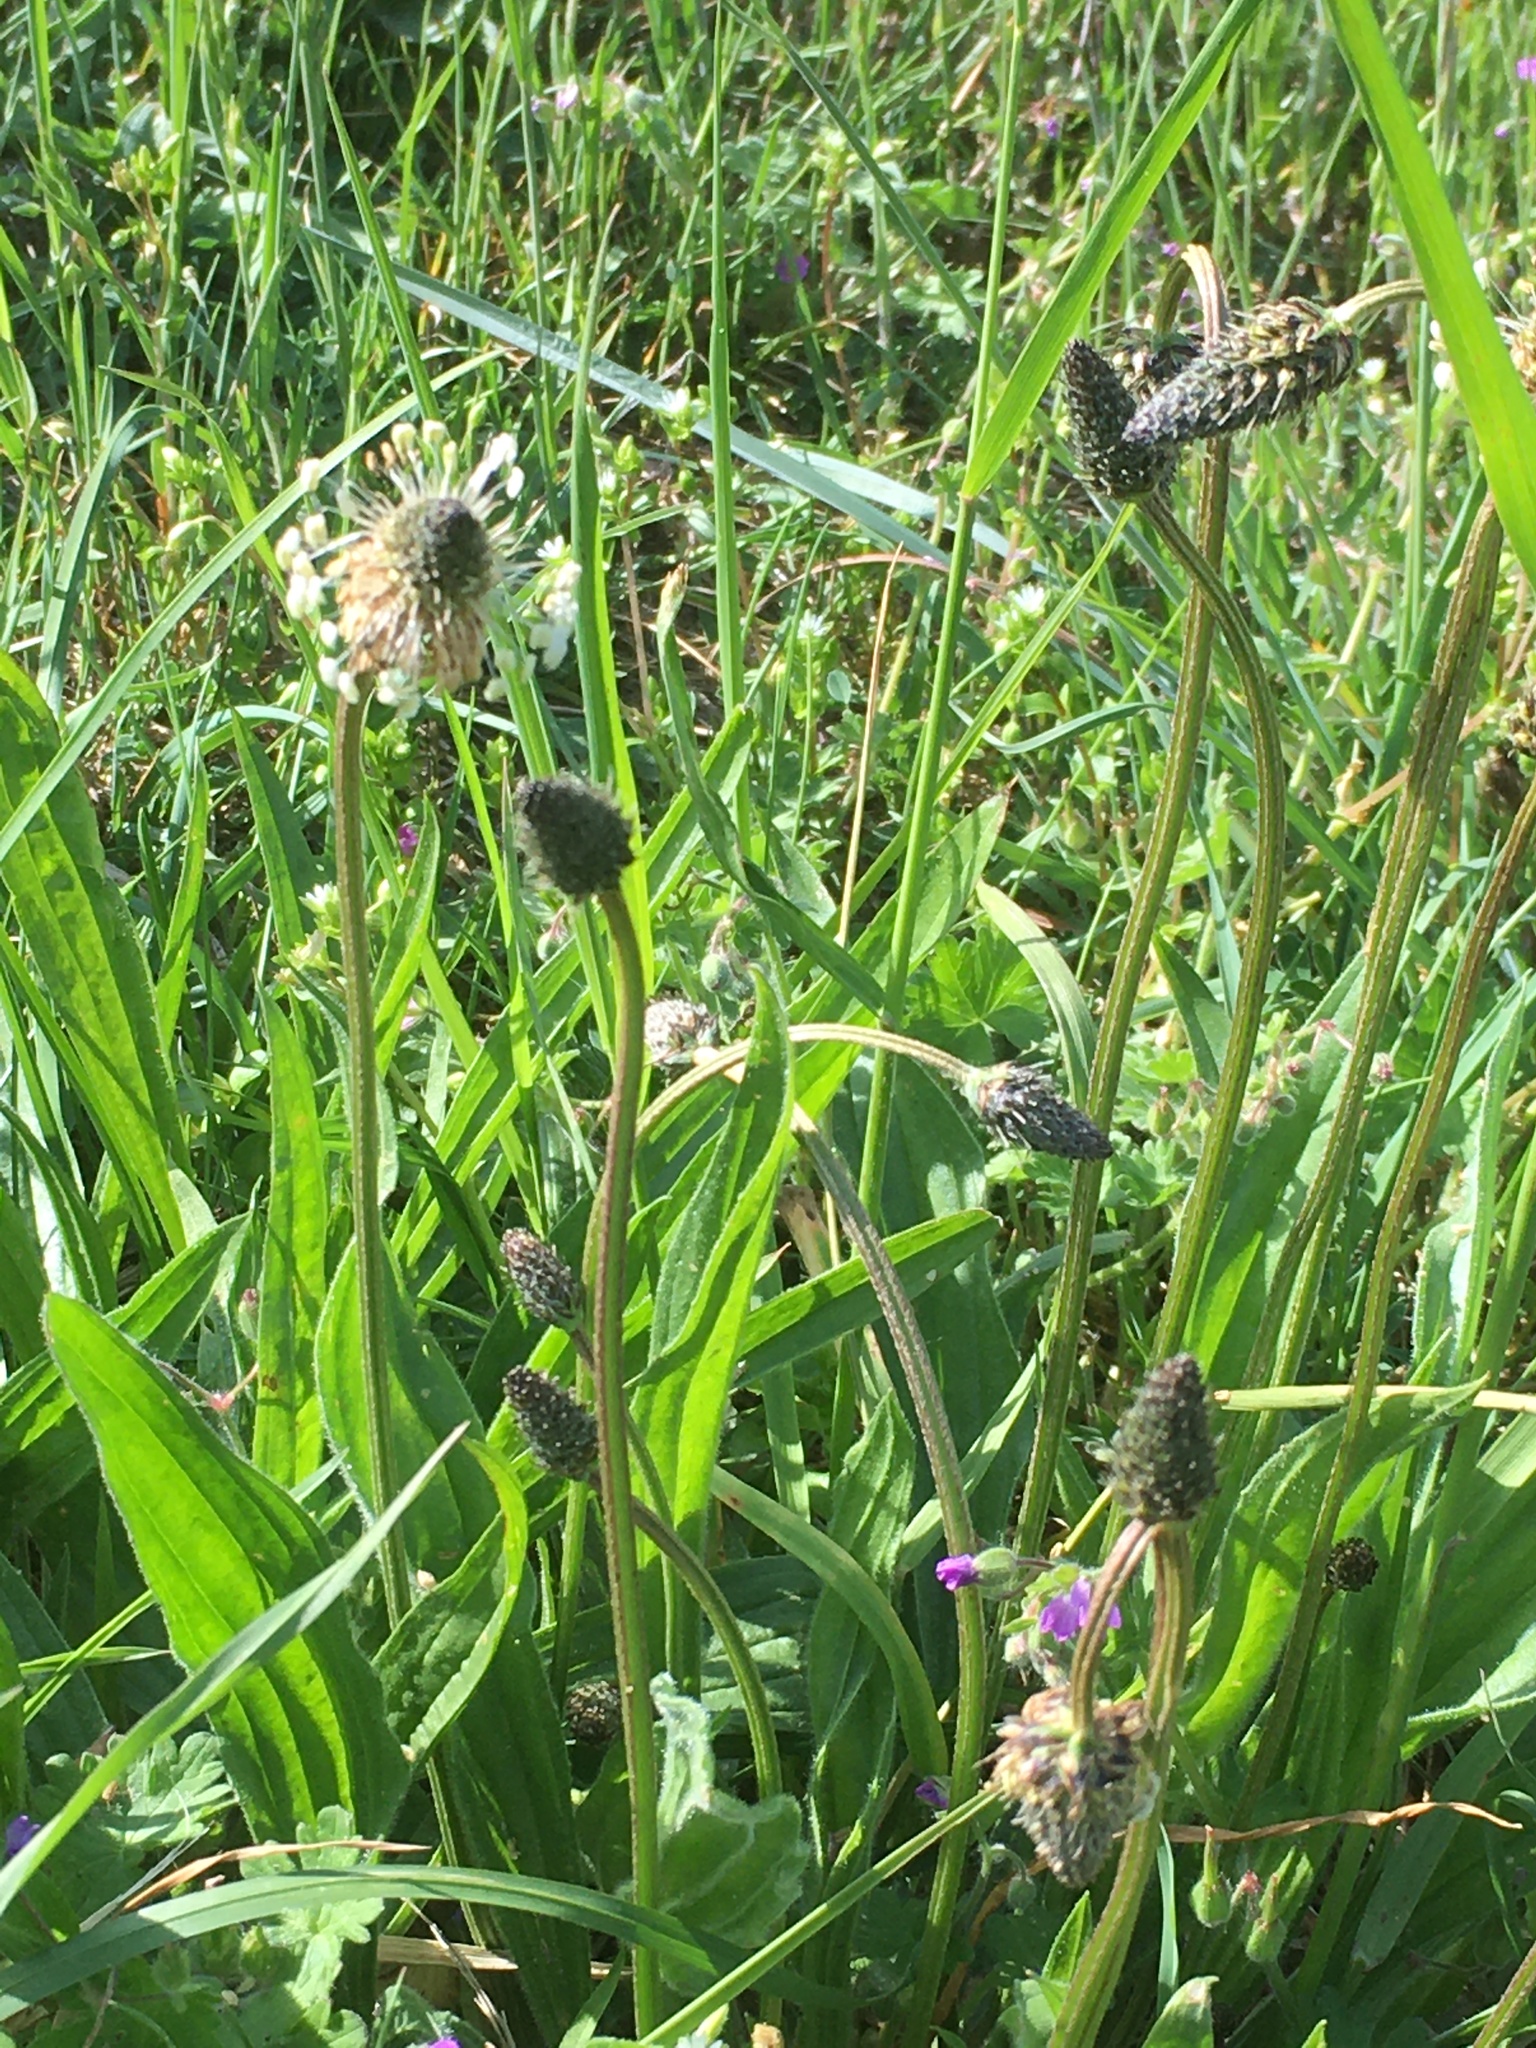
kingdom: Plantae
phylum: Tracheophyta
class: Magnoliopsida
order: Lamiales
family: Plantaginaceae
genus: Plantago
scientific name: Plantago lanceolata
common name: Ribwort plantain
